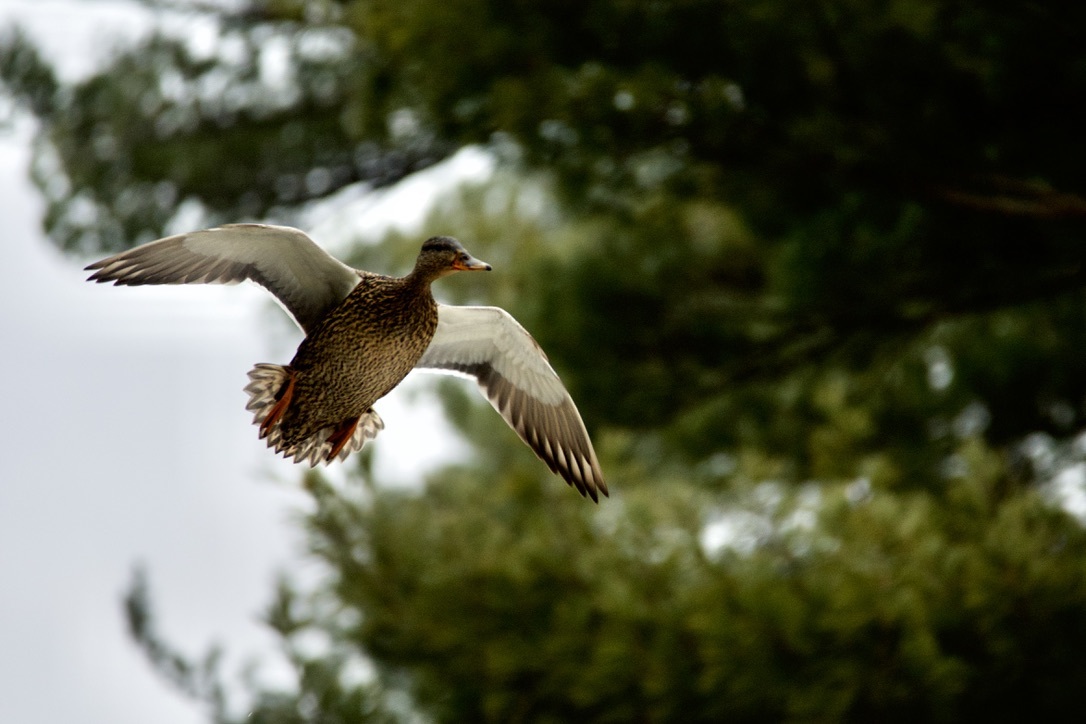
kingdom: Animalia
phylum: Chordata
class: Aves
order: Anseriformes
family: Anatidae
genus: Anas
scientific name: Anas platyrhynchos
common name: Mallard
